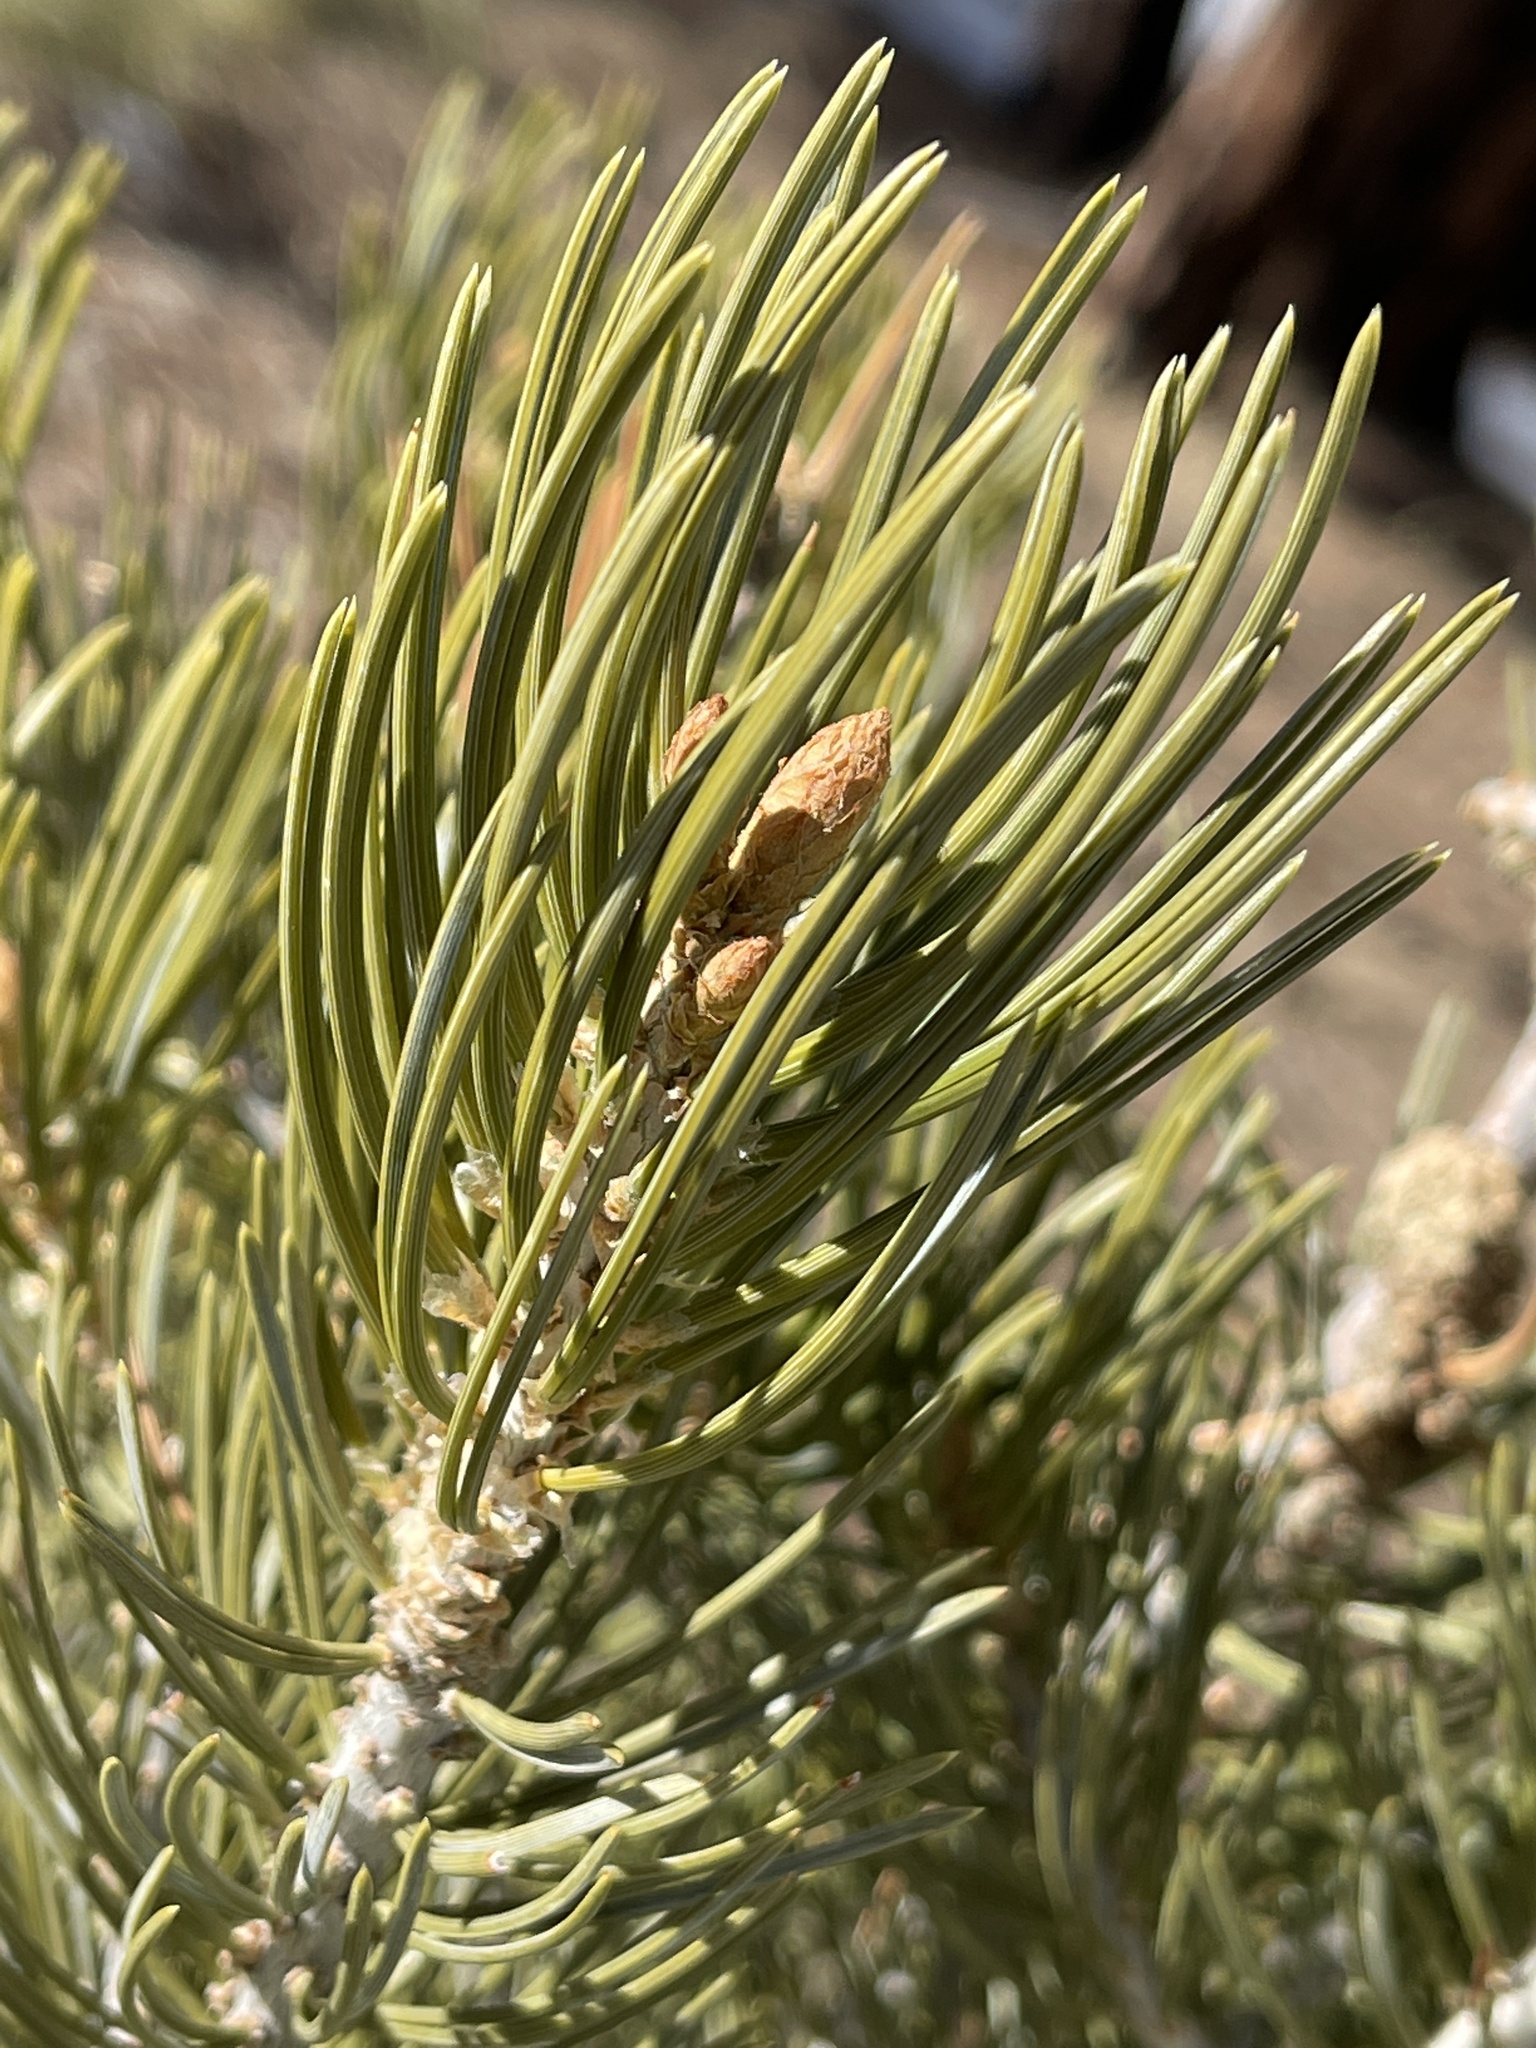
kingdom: Plantae
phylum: Tracheophyta
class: Pinopsida
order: Pinales
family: Pinaceae
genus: Pinus
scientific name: Pinus edulis
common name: Colorado pinyon
